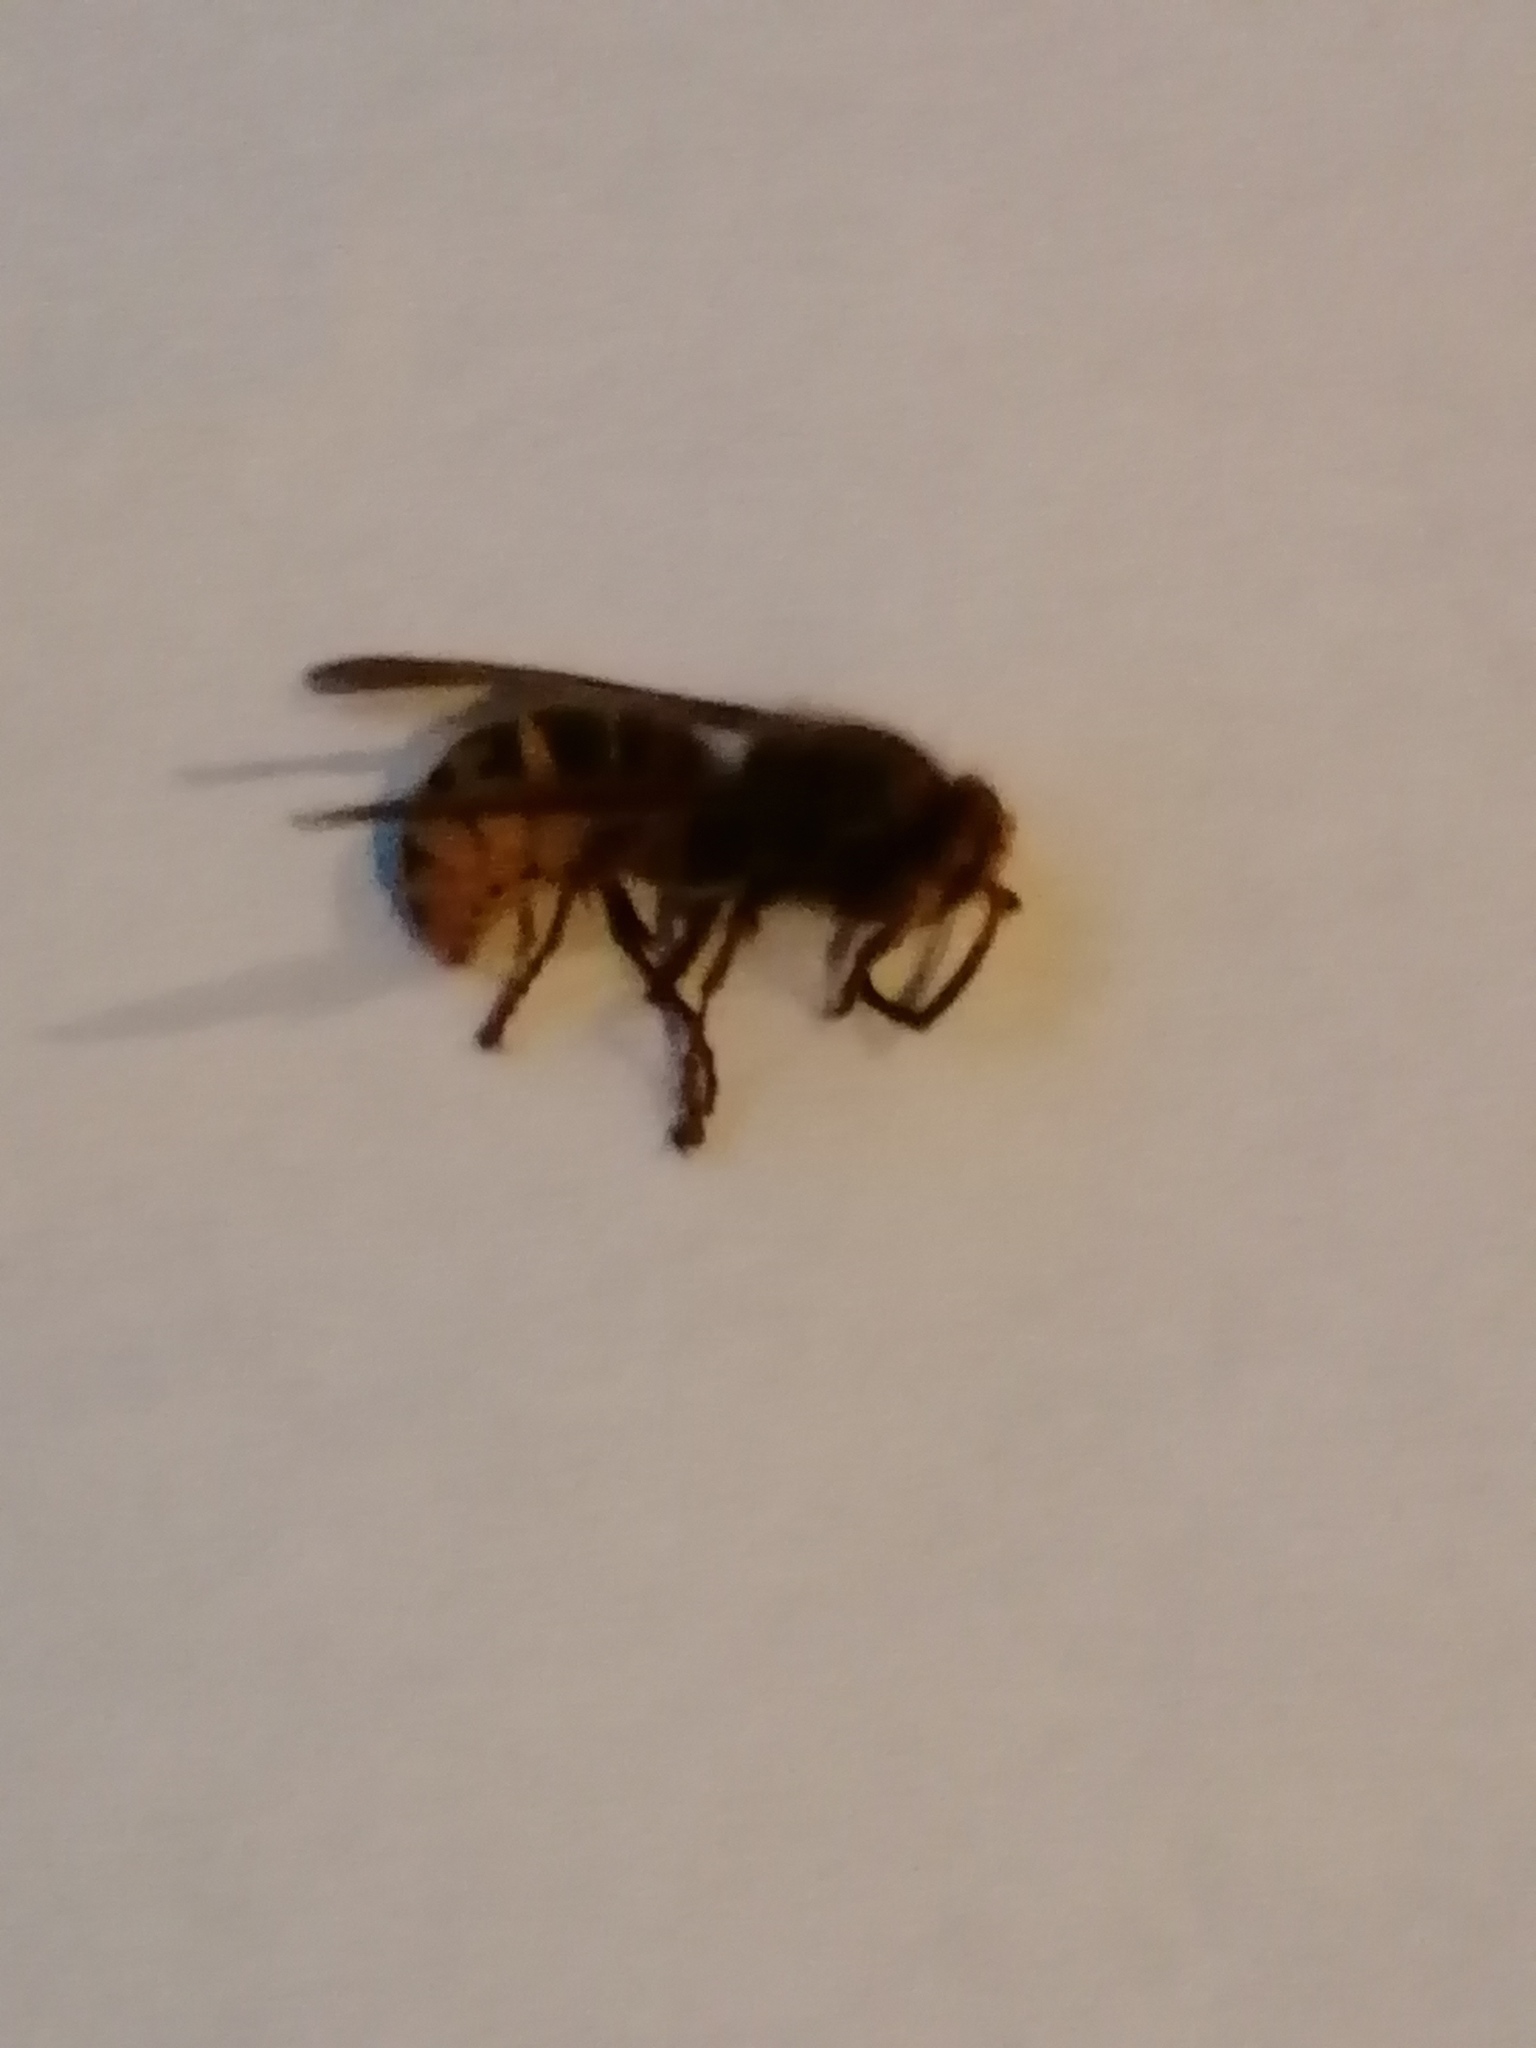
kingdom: Animalia
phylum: Arthropoda
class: Insecta
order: Hymenoptera
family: Vespidae
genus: Vespa
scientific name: Vespa crabro
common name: Hornet
